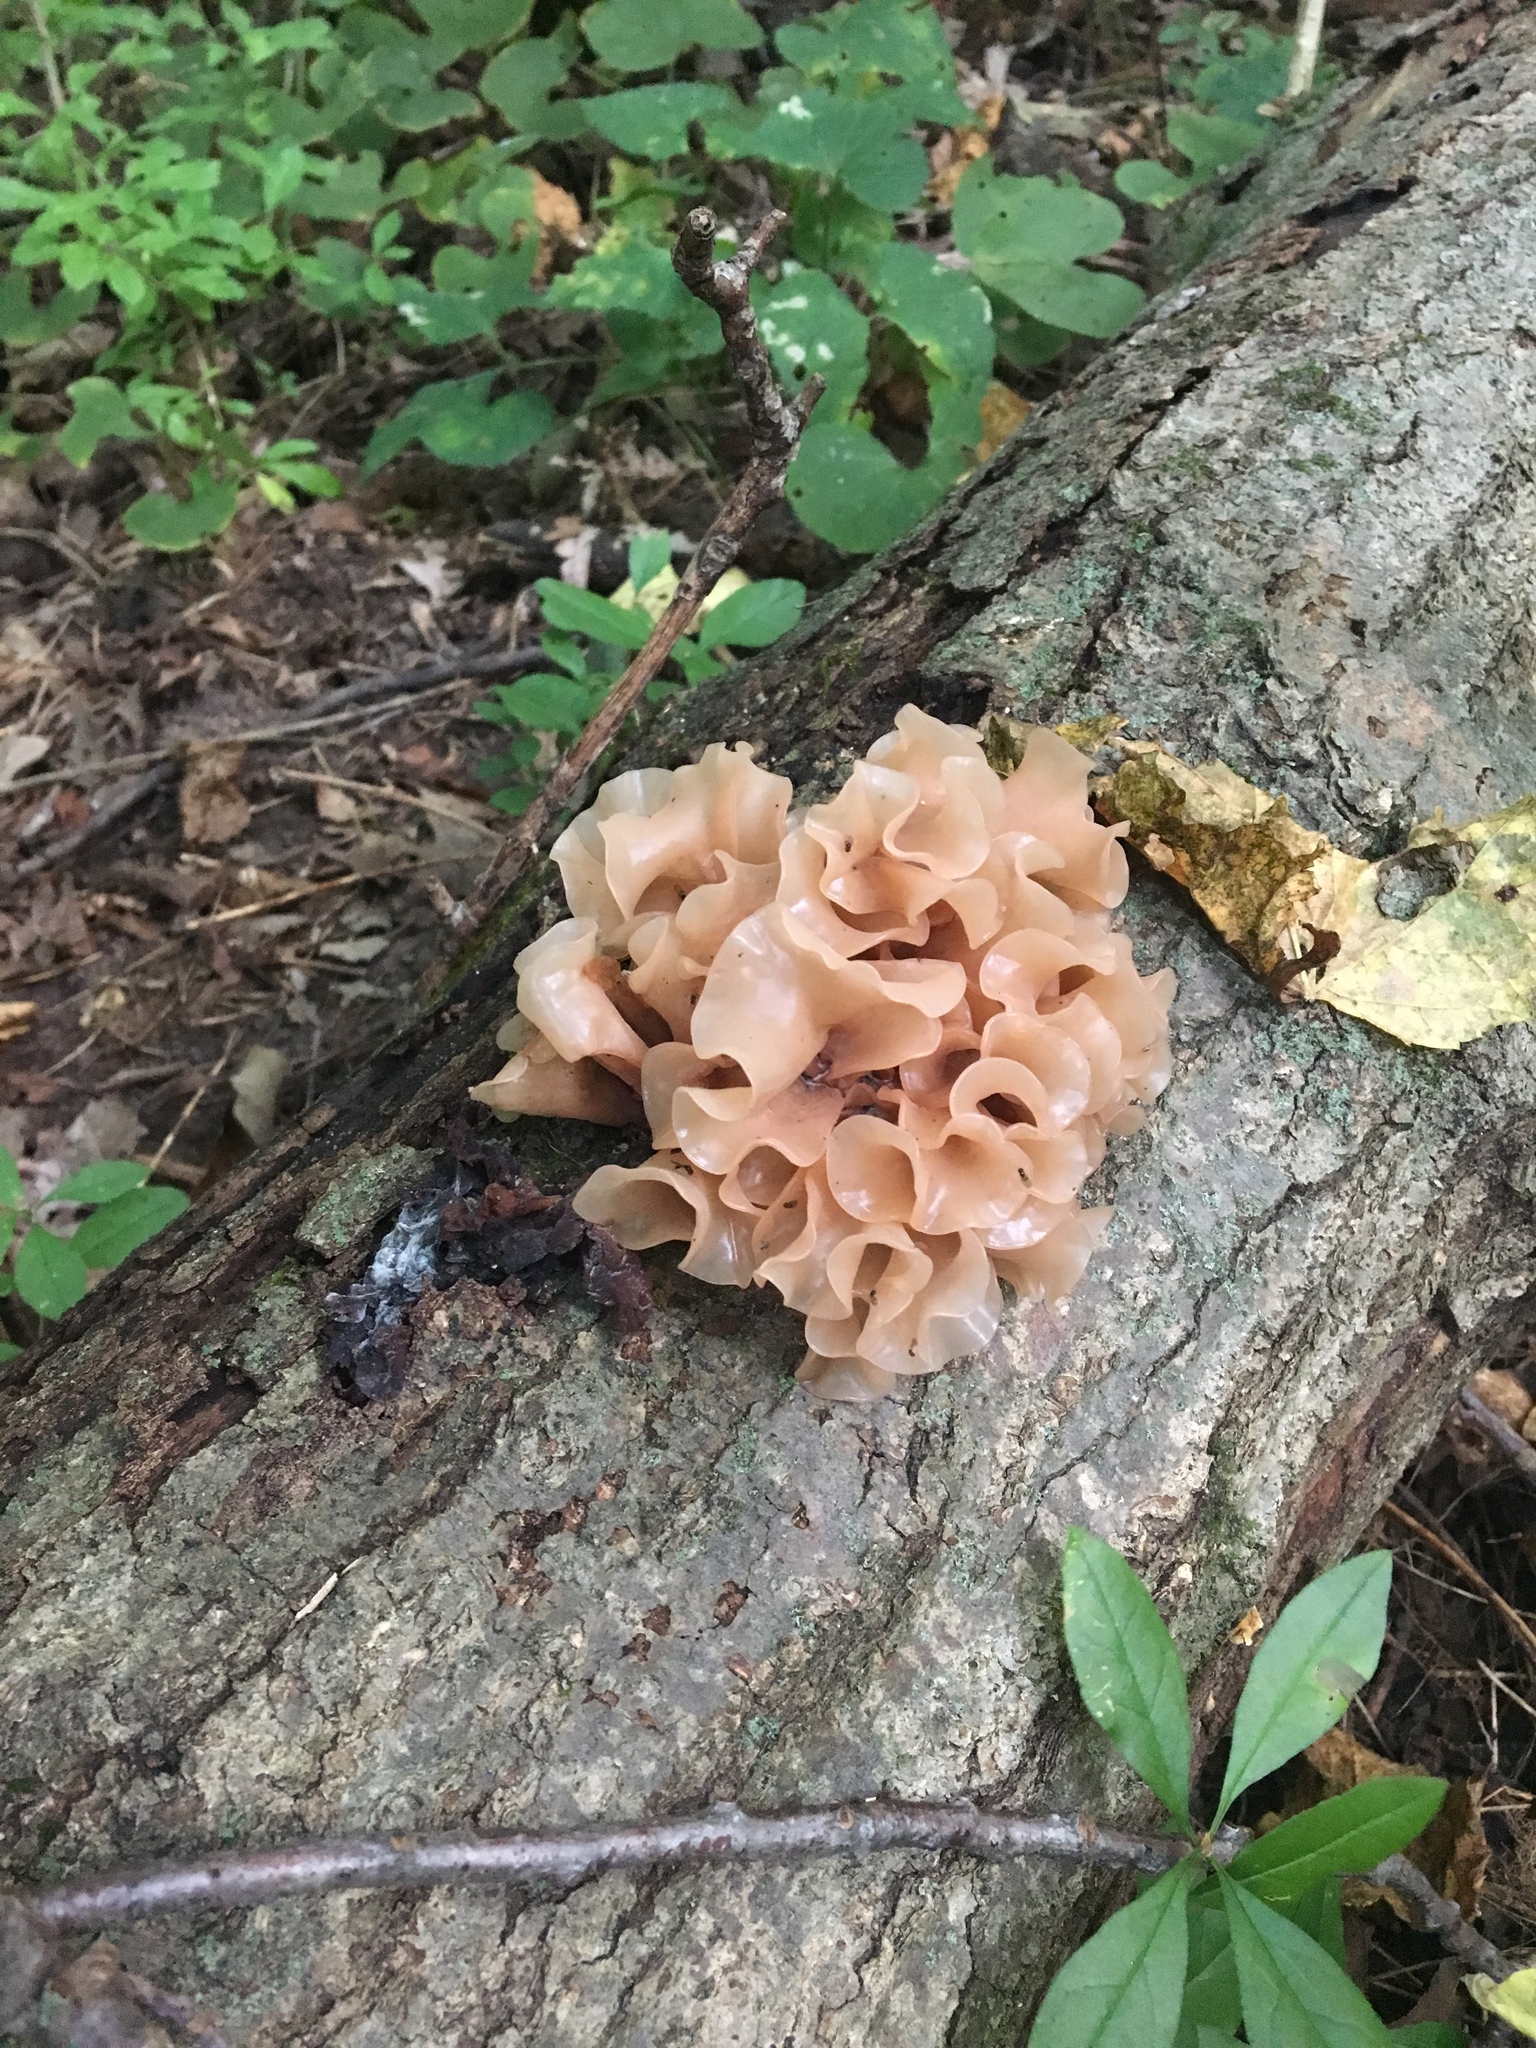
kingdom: Fungi
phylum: Basidiomycota
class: Tremellomycetes
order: Tremellales
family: Tremellaceae
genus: Phaeotremella
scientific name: Phaeotremella foliacea
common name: Leafy brain
